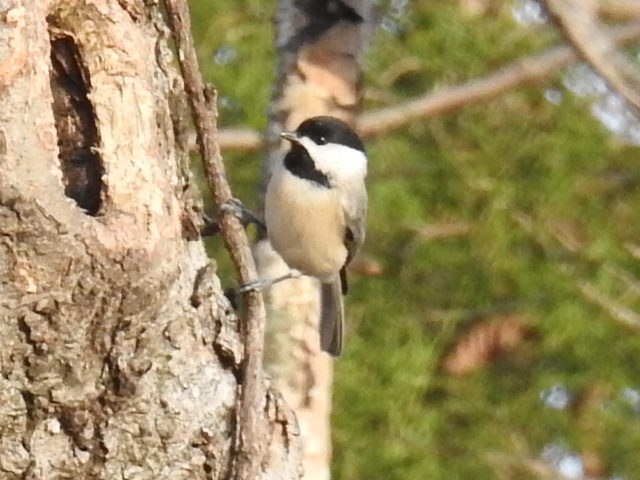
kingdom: Animalia
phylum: Chordata
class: Aves
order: Passeriformes
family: Paridae
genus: Poecile
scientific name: Poecile carolinensis
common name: Carolina chickadee
